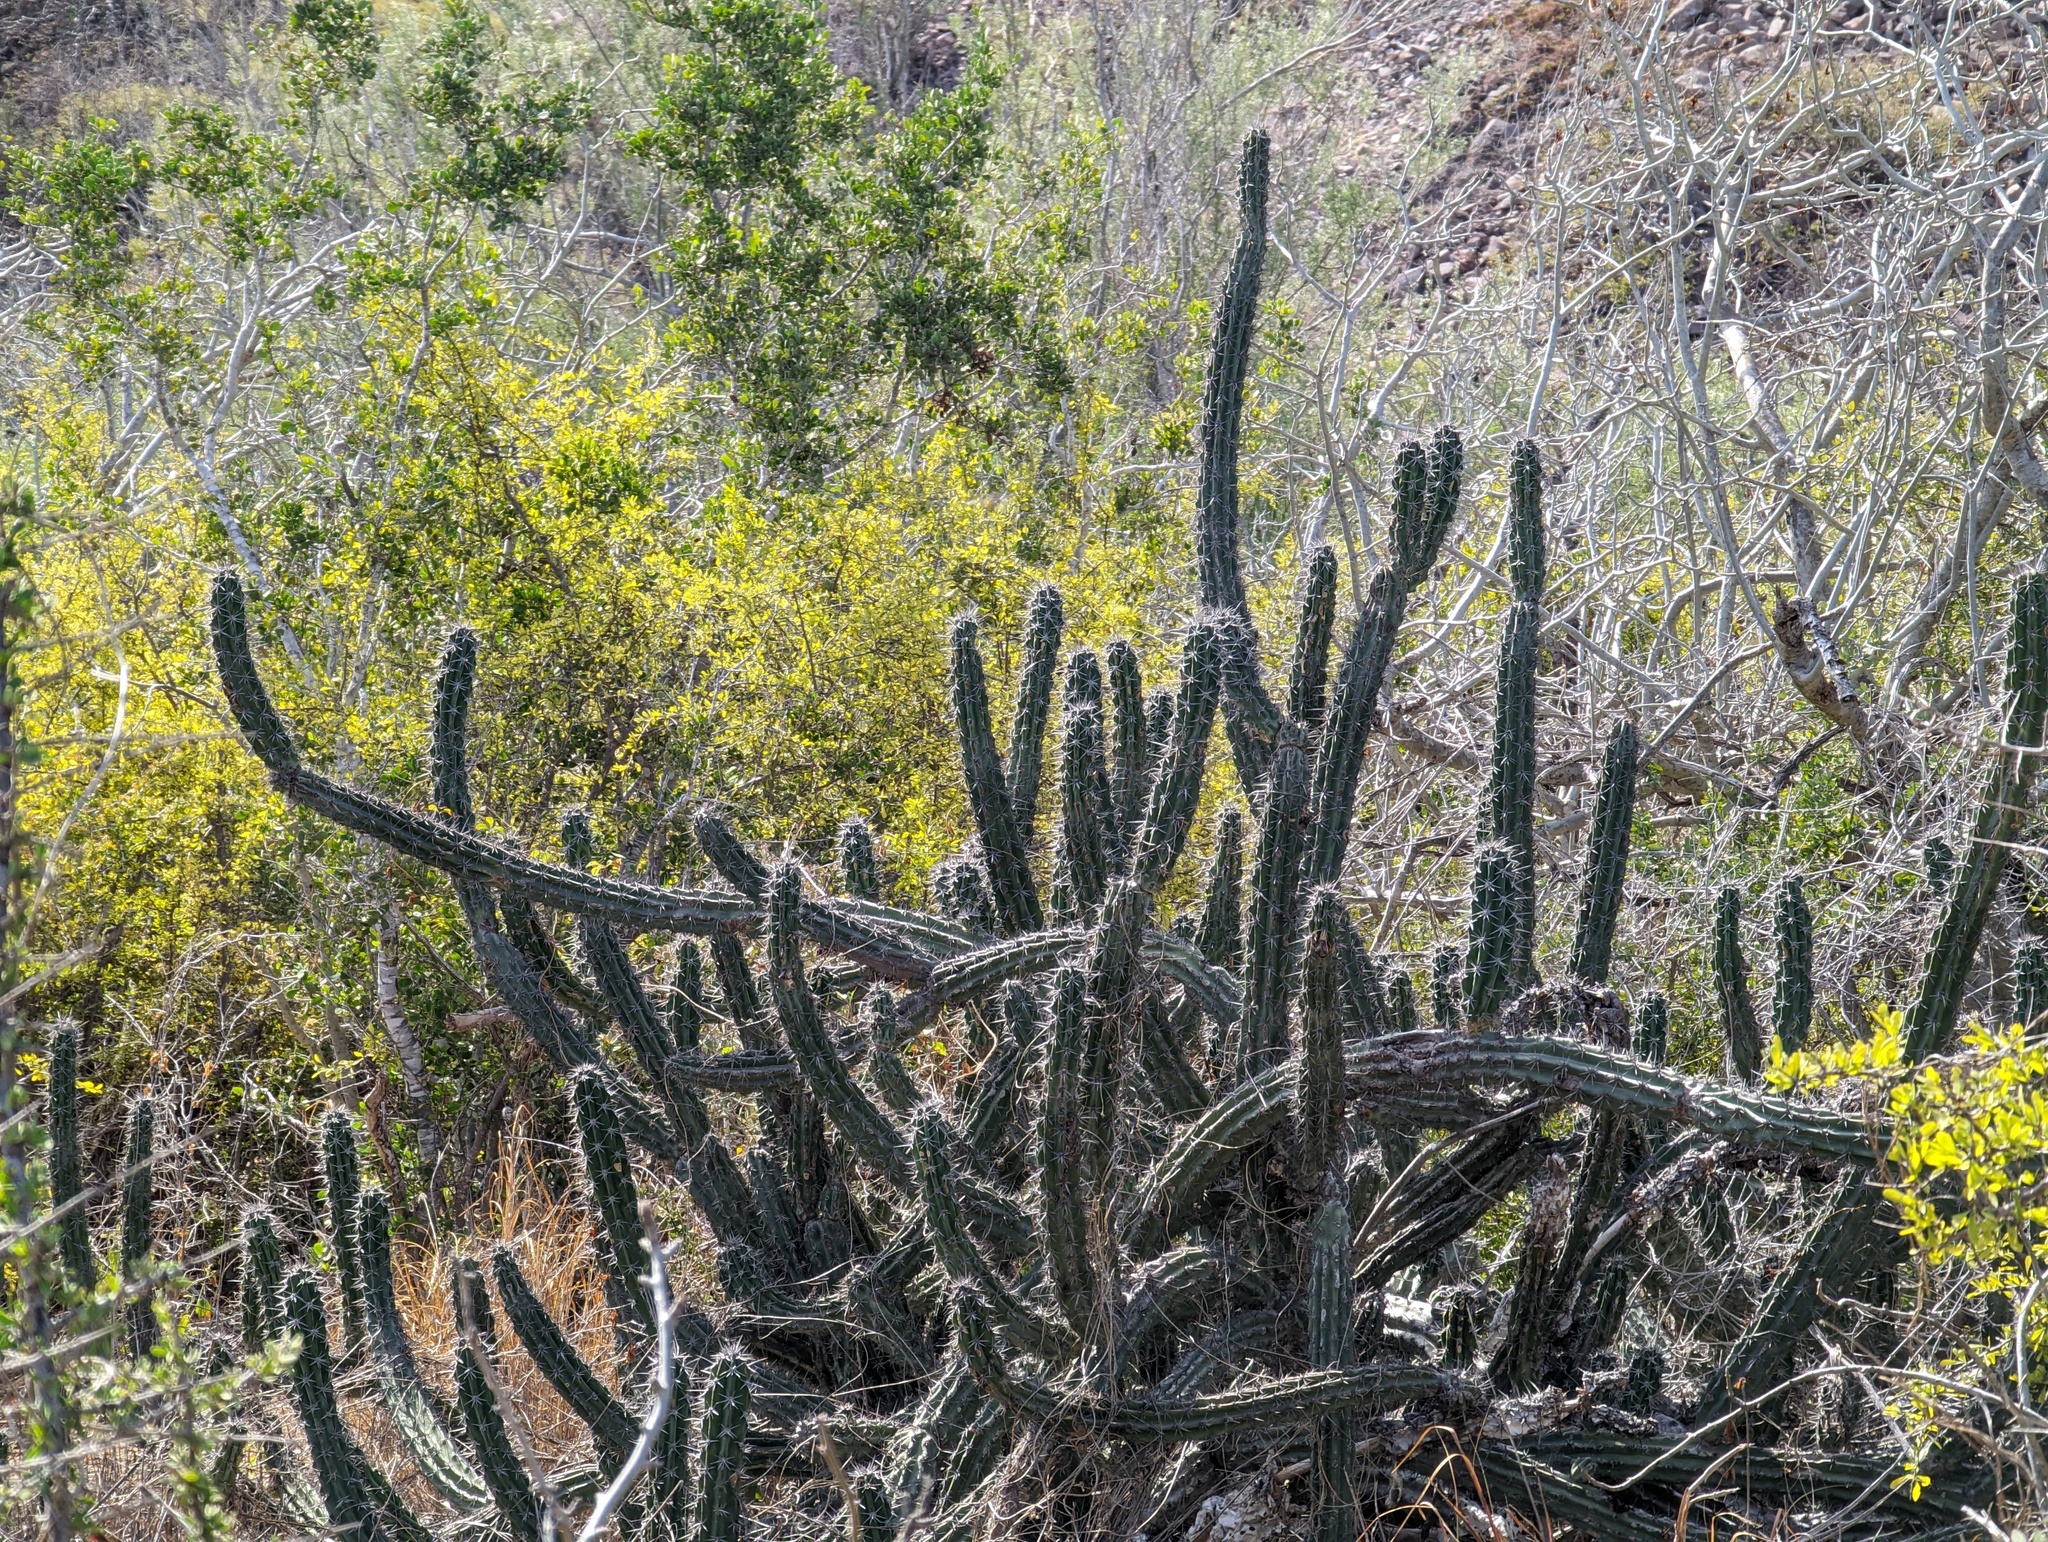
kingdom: Plantae
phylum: Tracheophyta
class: Magnoliopsida
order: Caryophyllales
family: Cactaceae
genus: Stenocereus
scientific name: Stenocereus gummosus
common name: Dagger cactus
